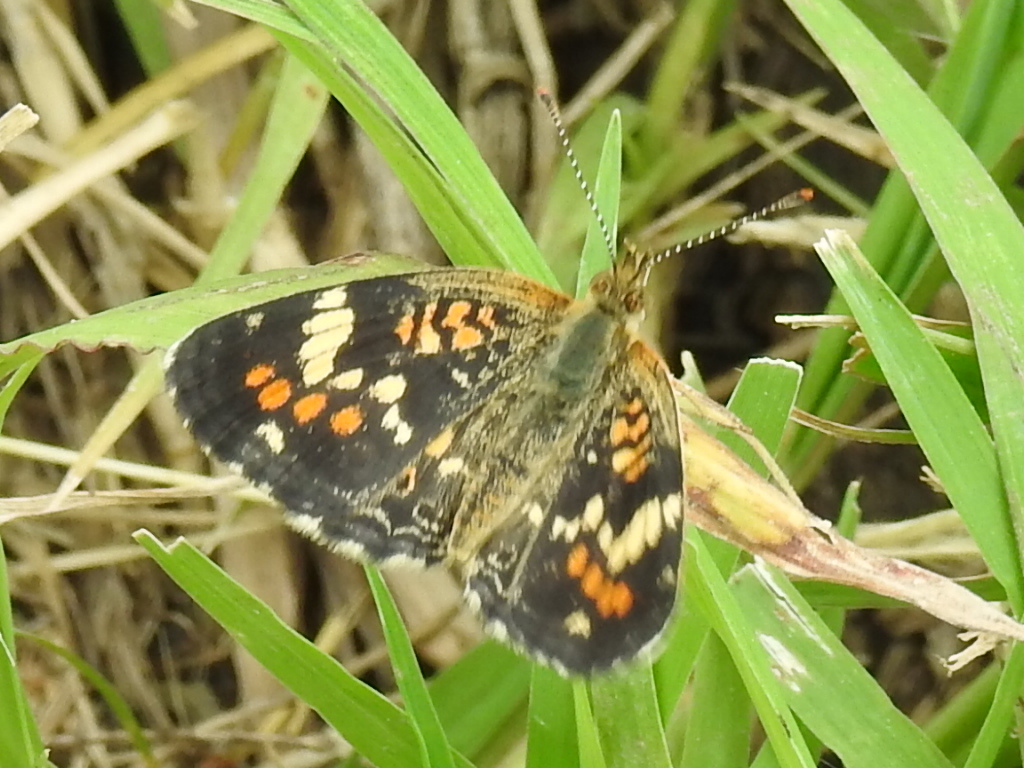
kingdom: Animalia
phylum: Arthropoda
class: Insecta
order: Lepidoptera
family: Nymphalidae
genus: Phyciodes
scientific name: Phyciodes phaon
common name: Phaon crescent
